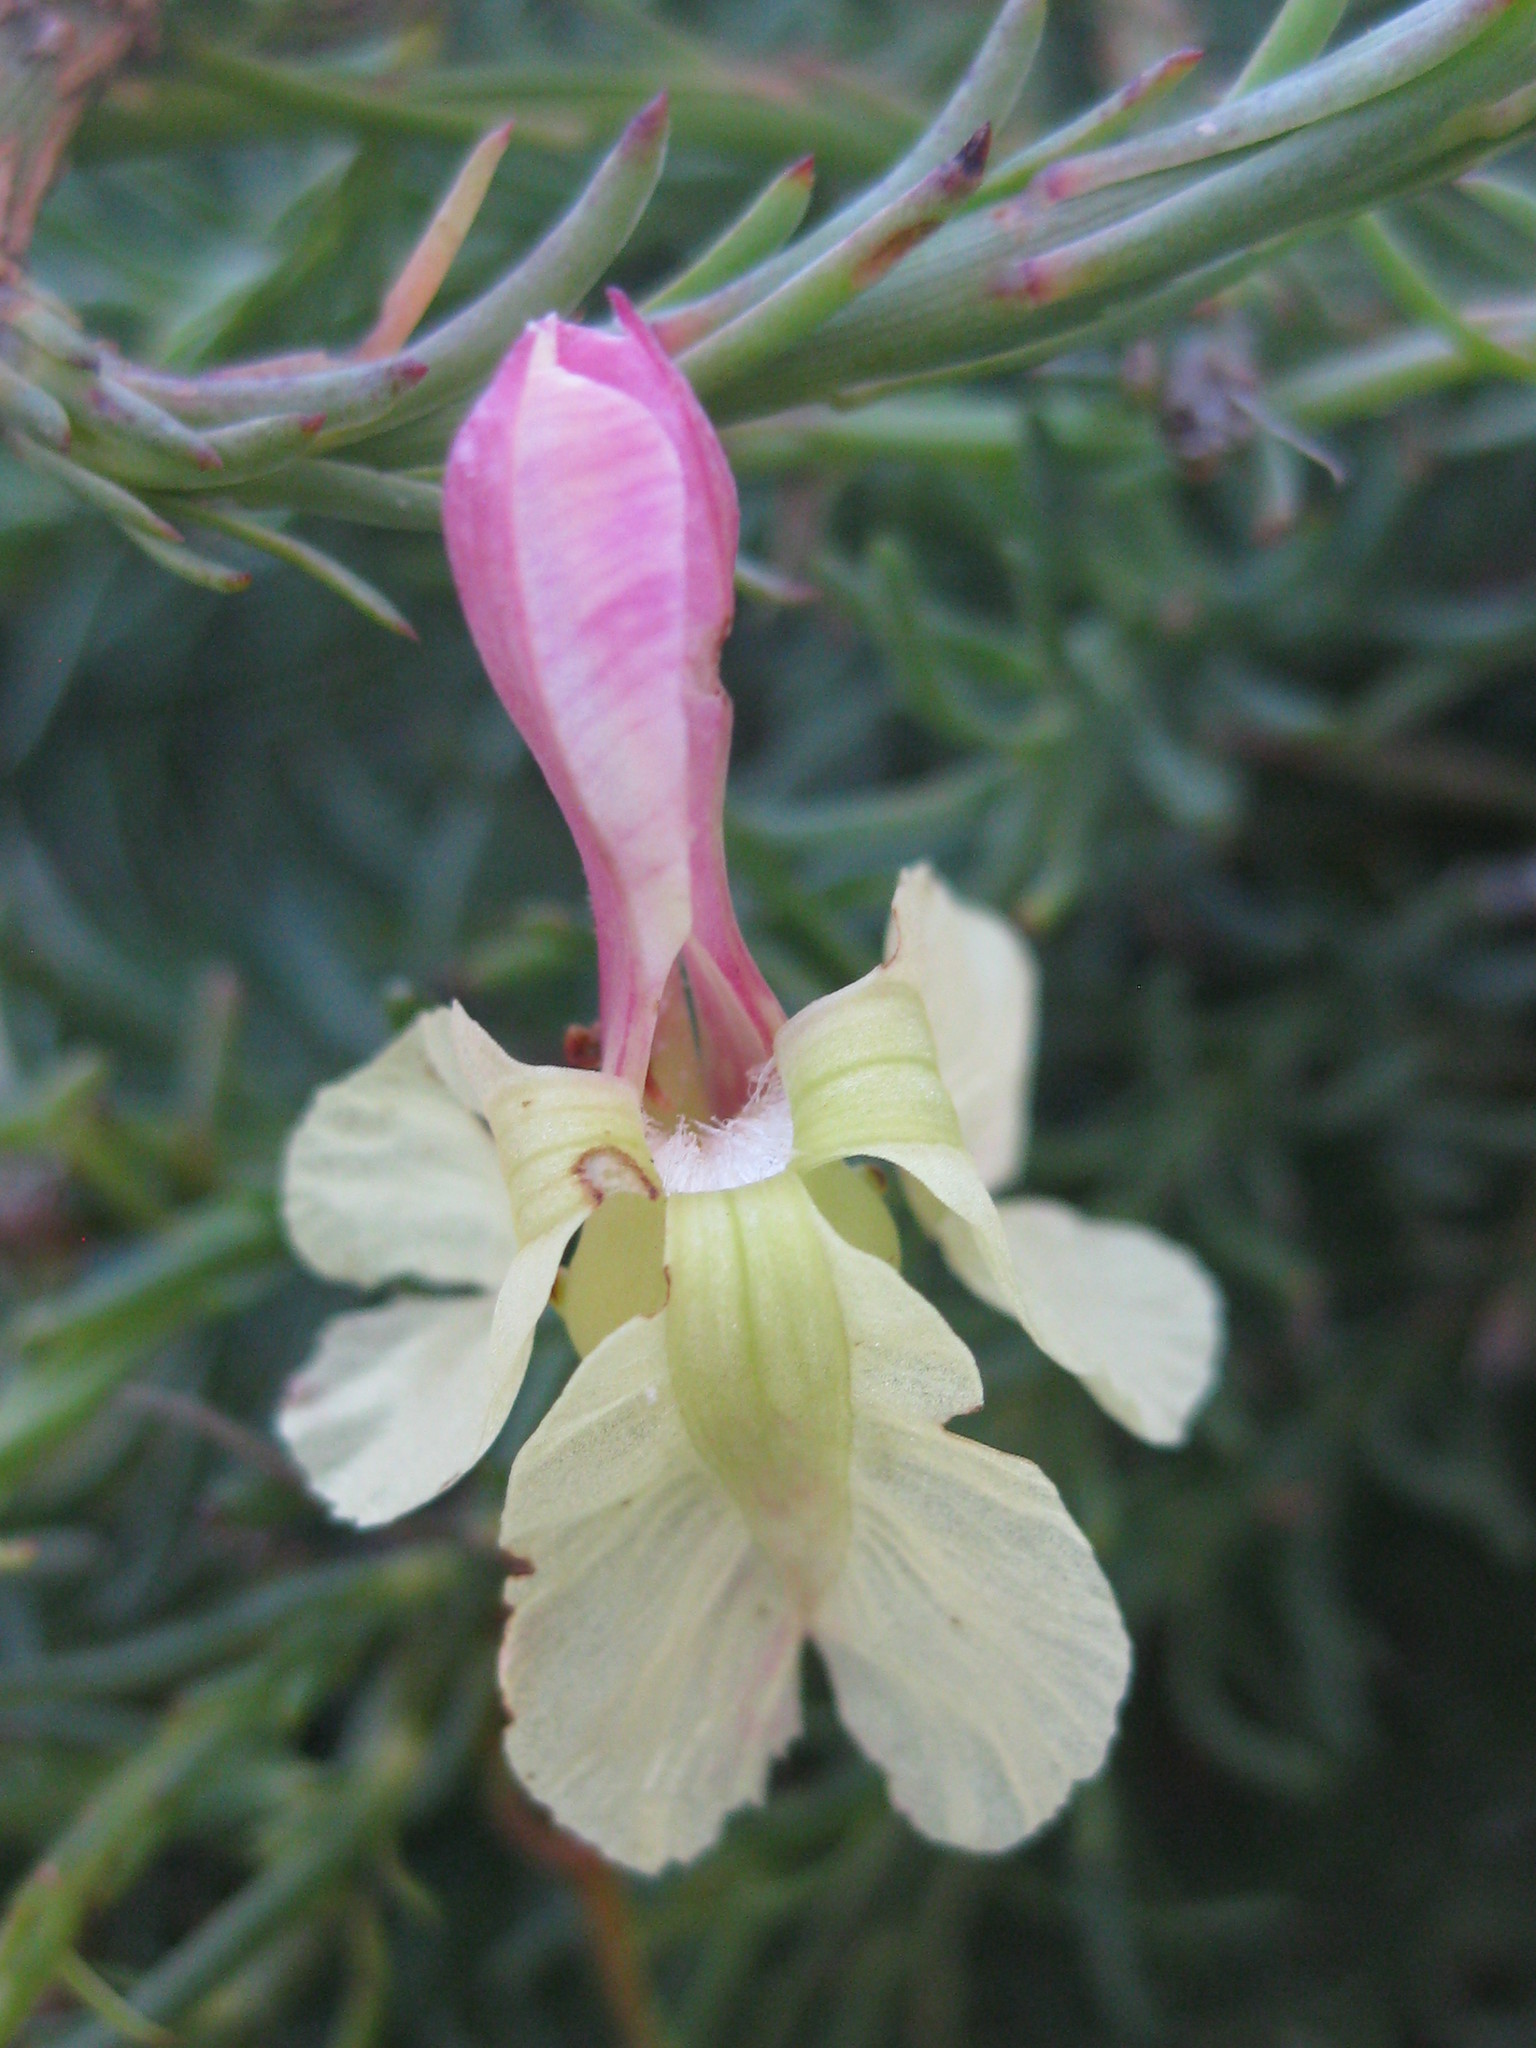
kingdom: Plantae
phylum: Tracheophyta
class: Magnoliopsida
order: Asterales
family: Goodeniaceae
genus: Lechenaultia
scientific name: Lechenaultia linarioides
